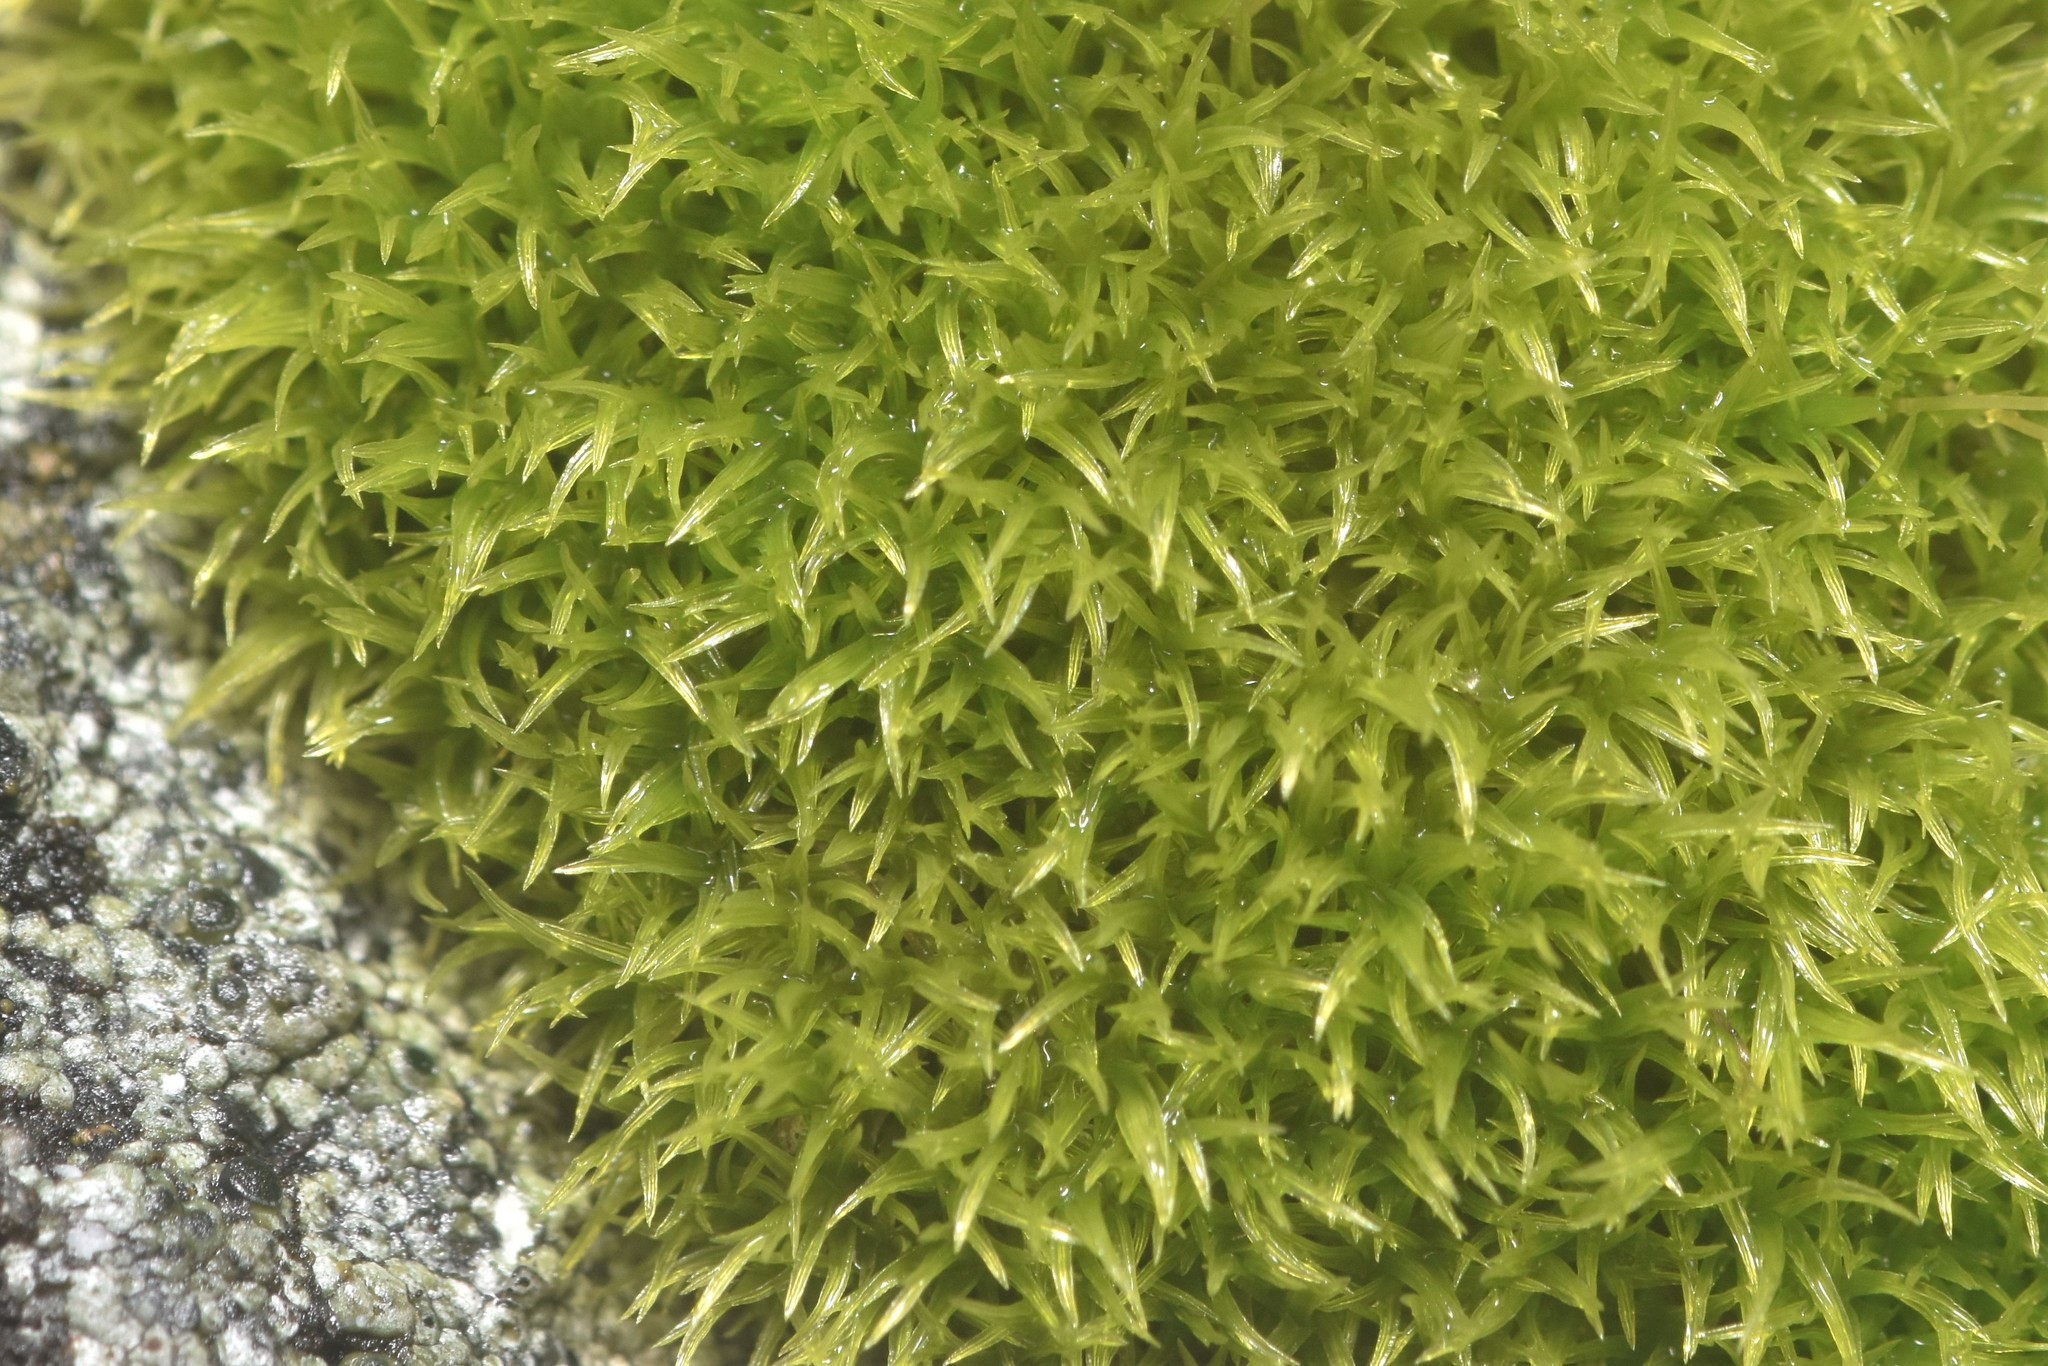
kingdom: Plantae
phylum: Bryophyta
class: Bryopsida
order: Scouleriales
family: Hymenolomataceae
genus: Hymenoloma
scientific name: Hymenoloma crispulum
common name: Mountain pincushion
